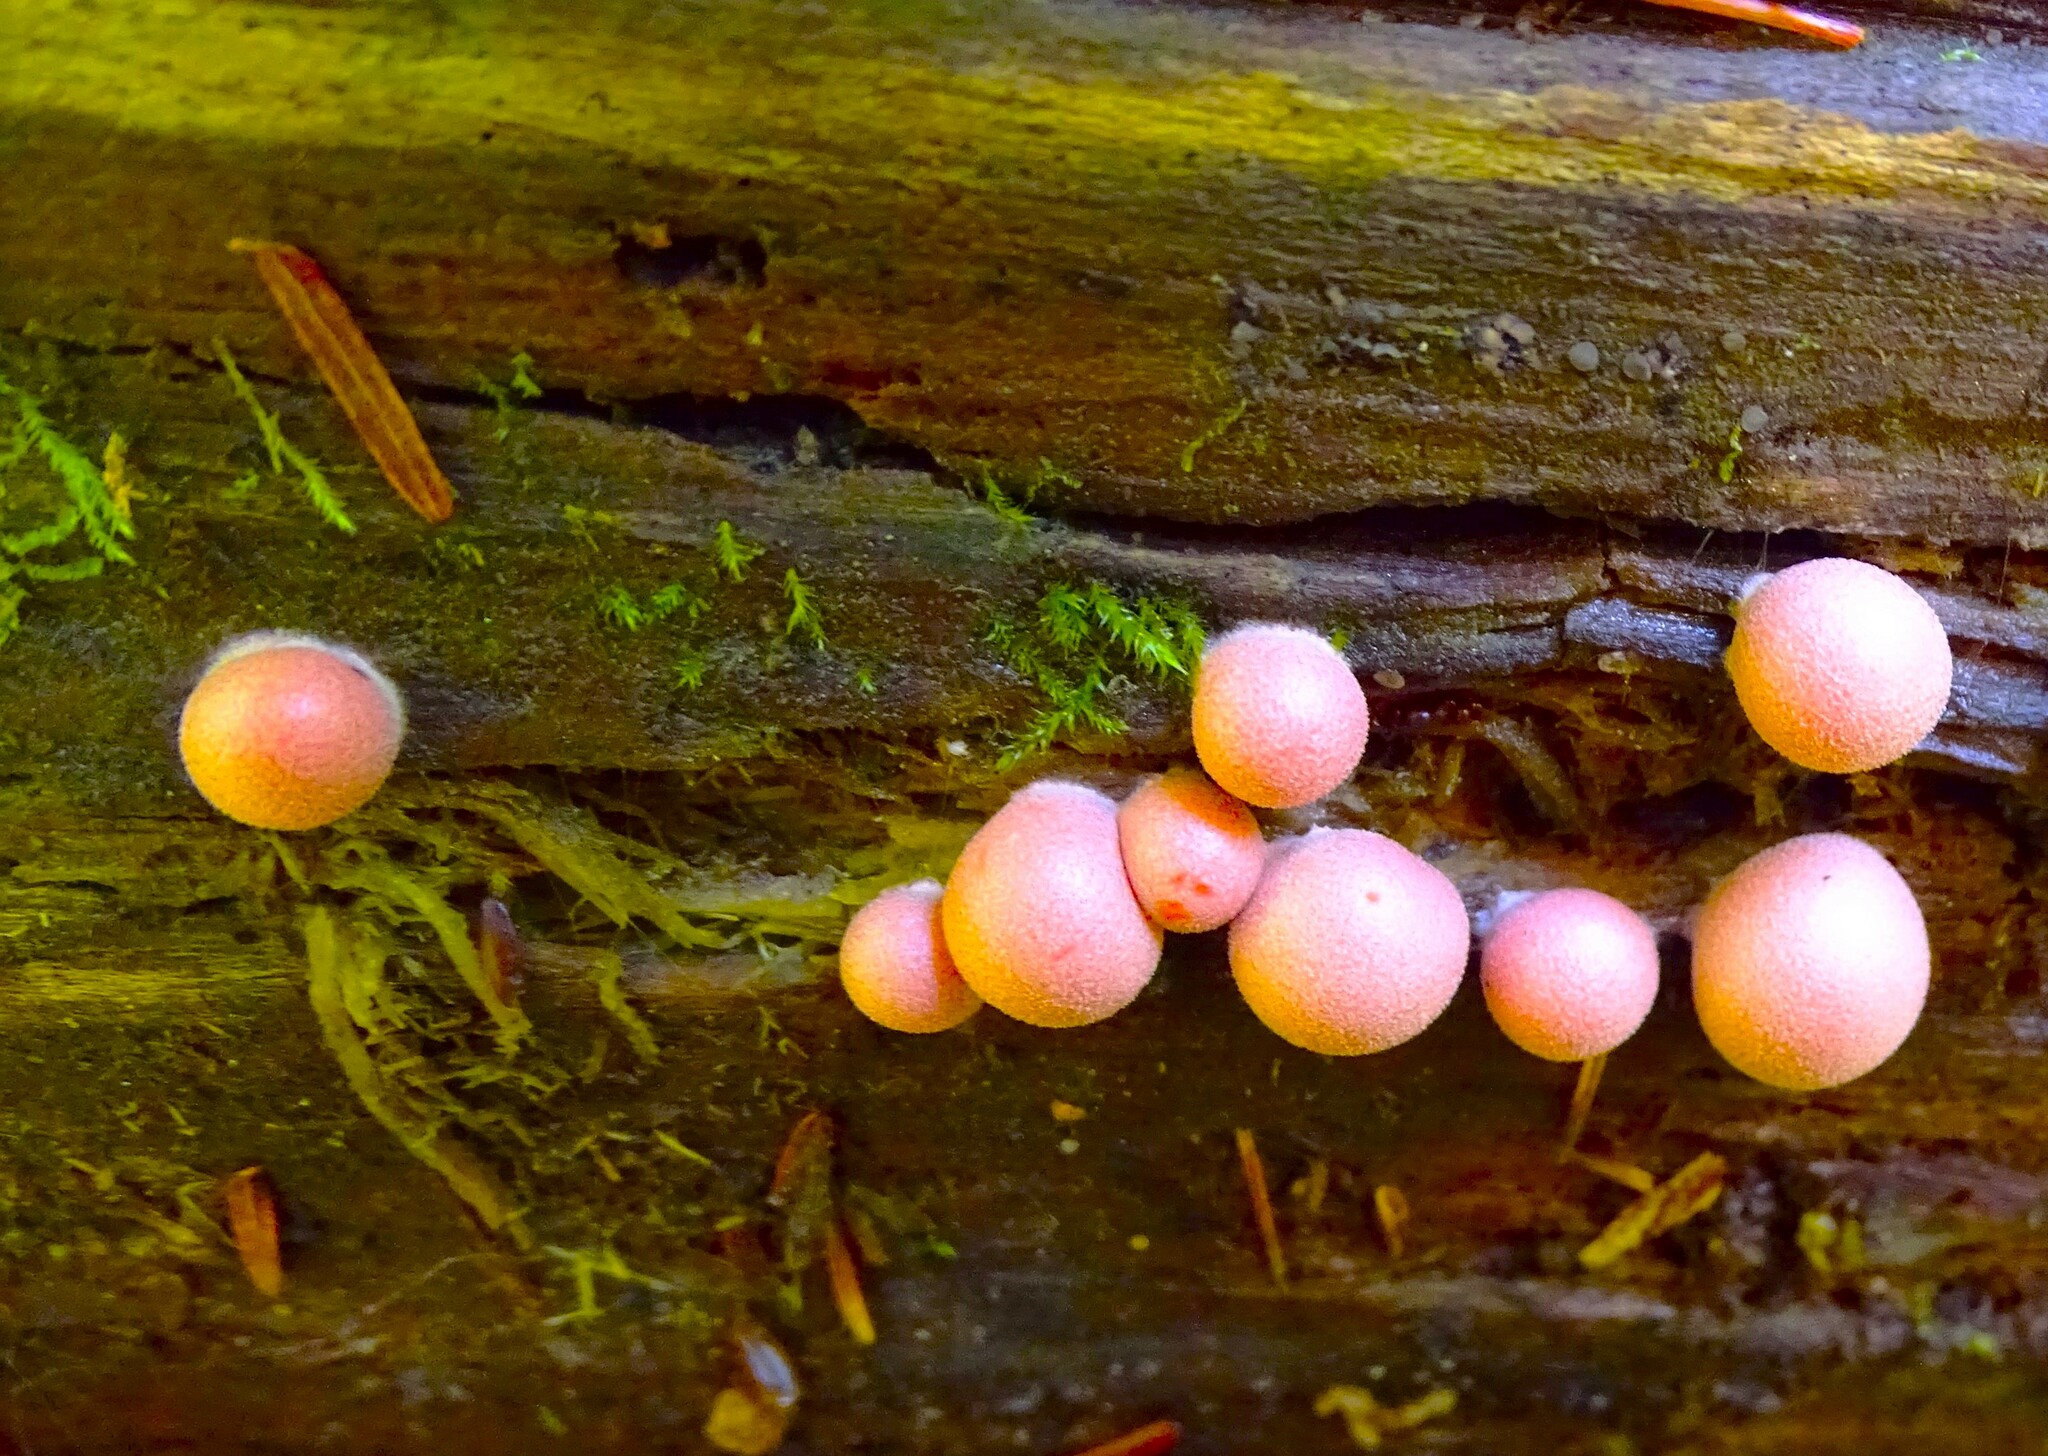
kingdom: Protozoa
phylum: Mycetozoa
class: Myxomycetes
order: Cribrariales
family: Tubiferaceae
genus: Lycogala
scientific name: Lycogala epidendrum
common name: Wolf's milk
